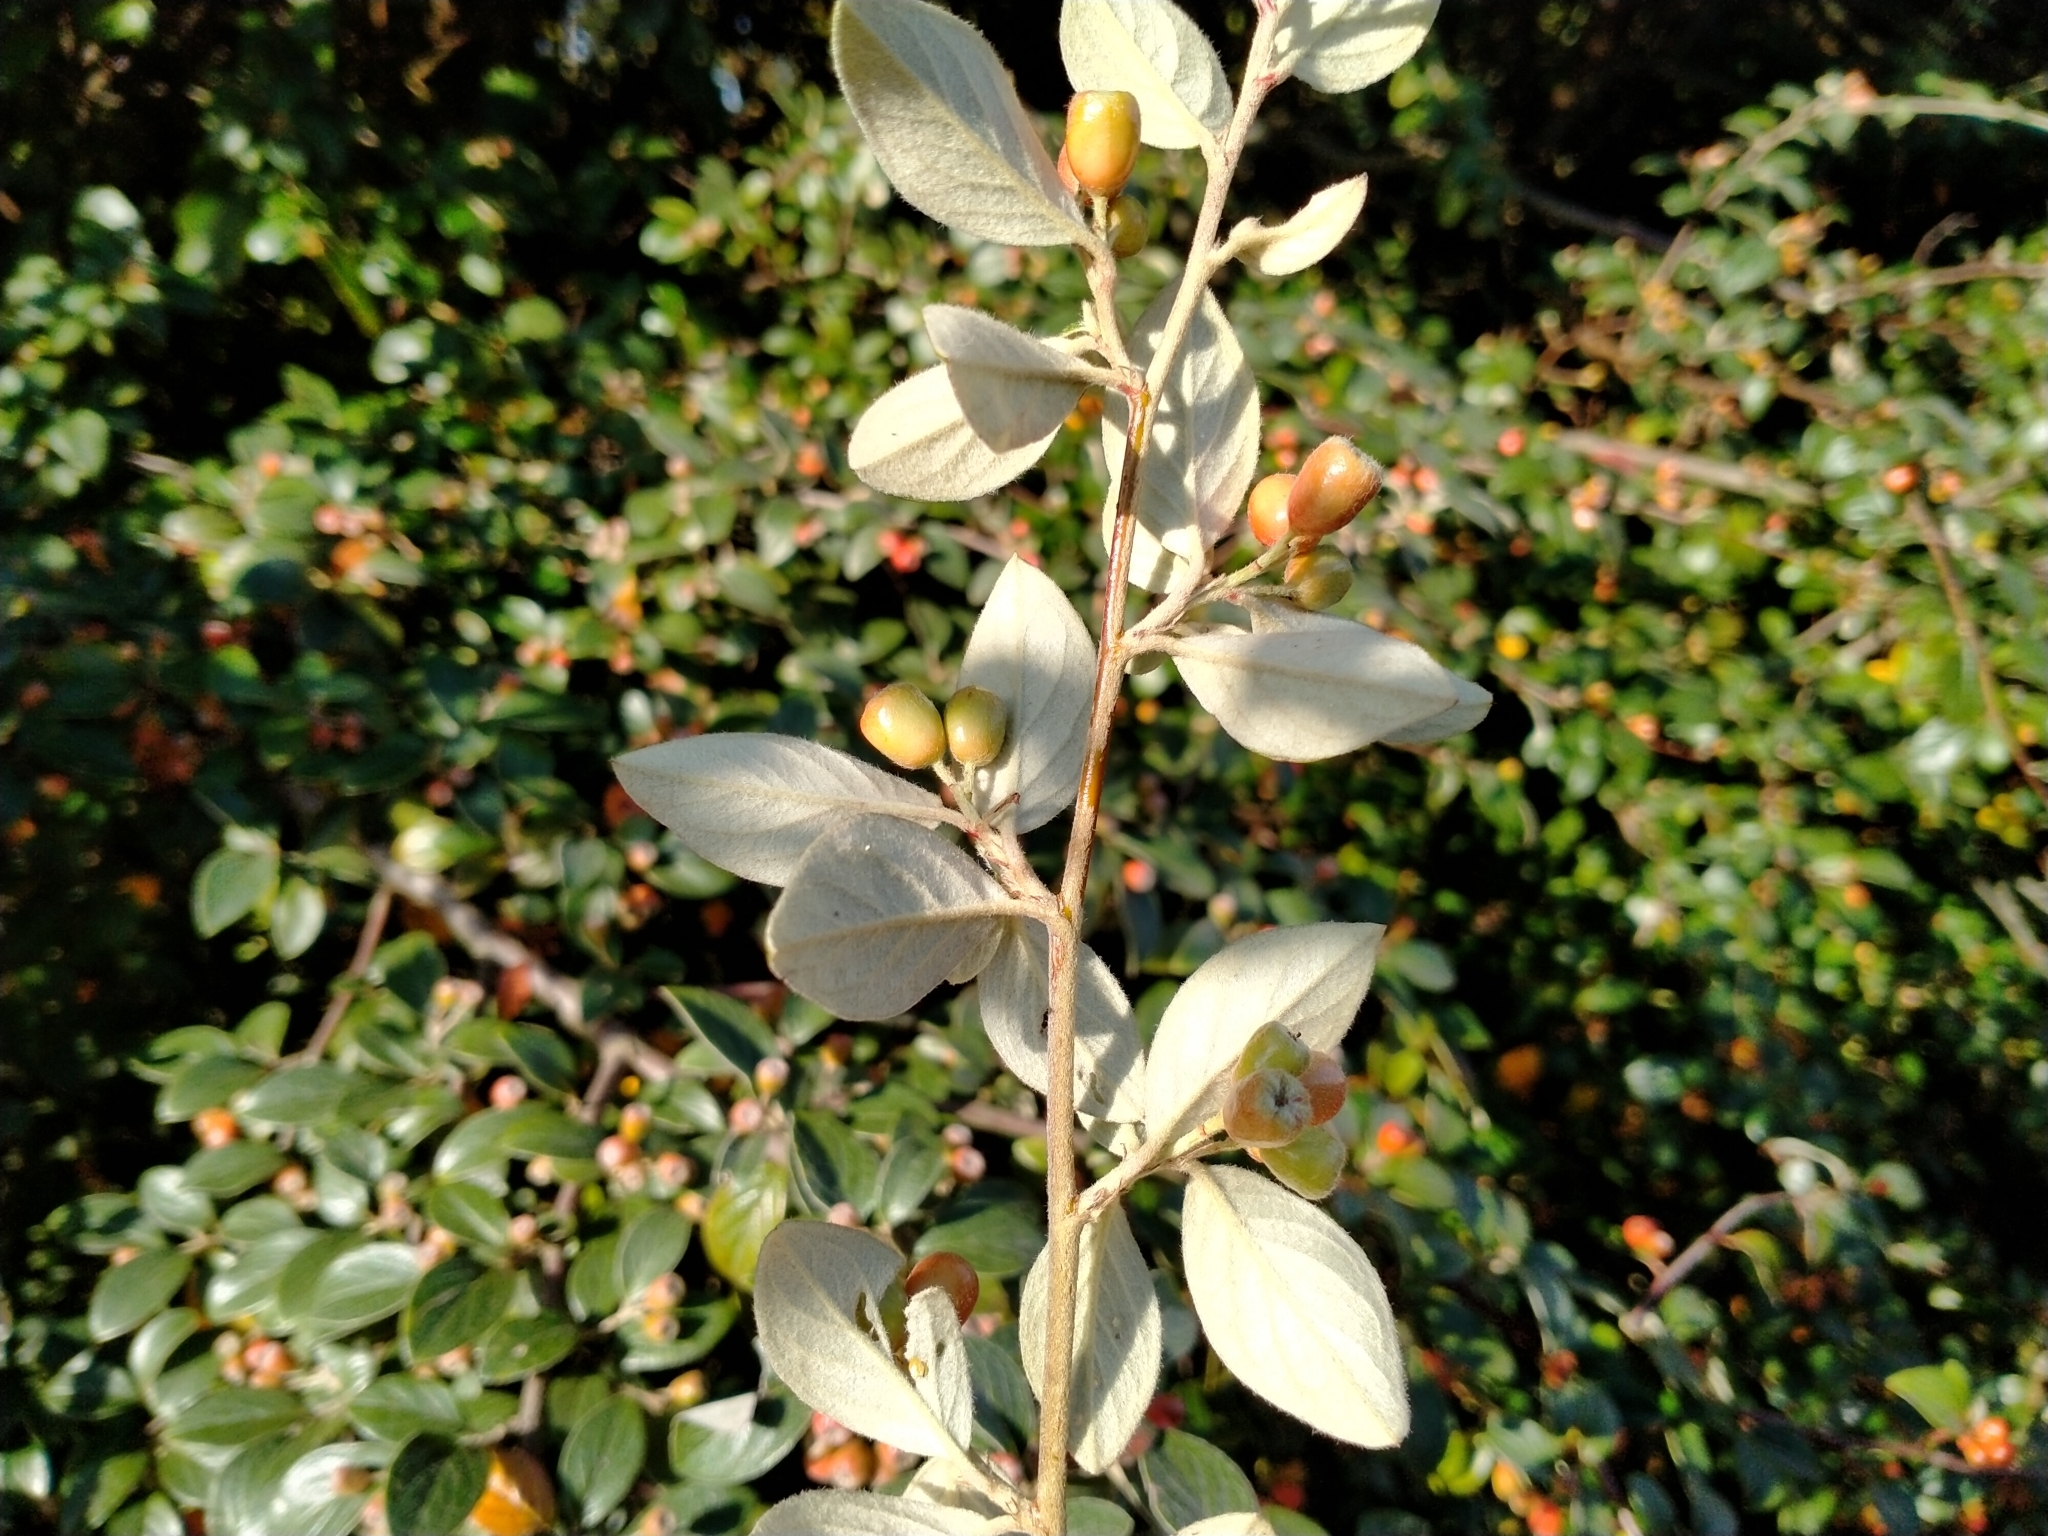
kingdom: Plantae
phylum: Tracheophyta
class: Magnoliopsida
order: Rosales
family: Rosaceae
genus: Cotoneaster
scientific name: Cotoneaster franchetii
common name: Franchet's cotoneaster
